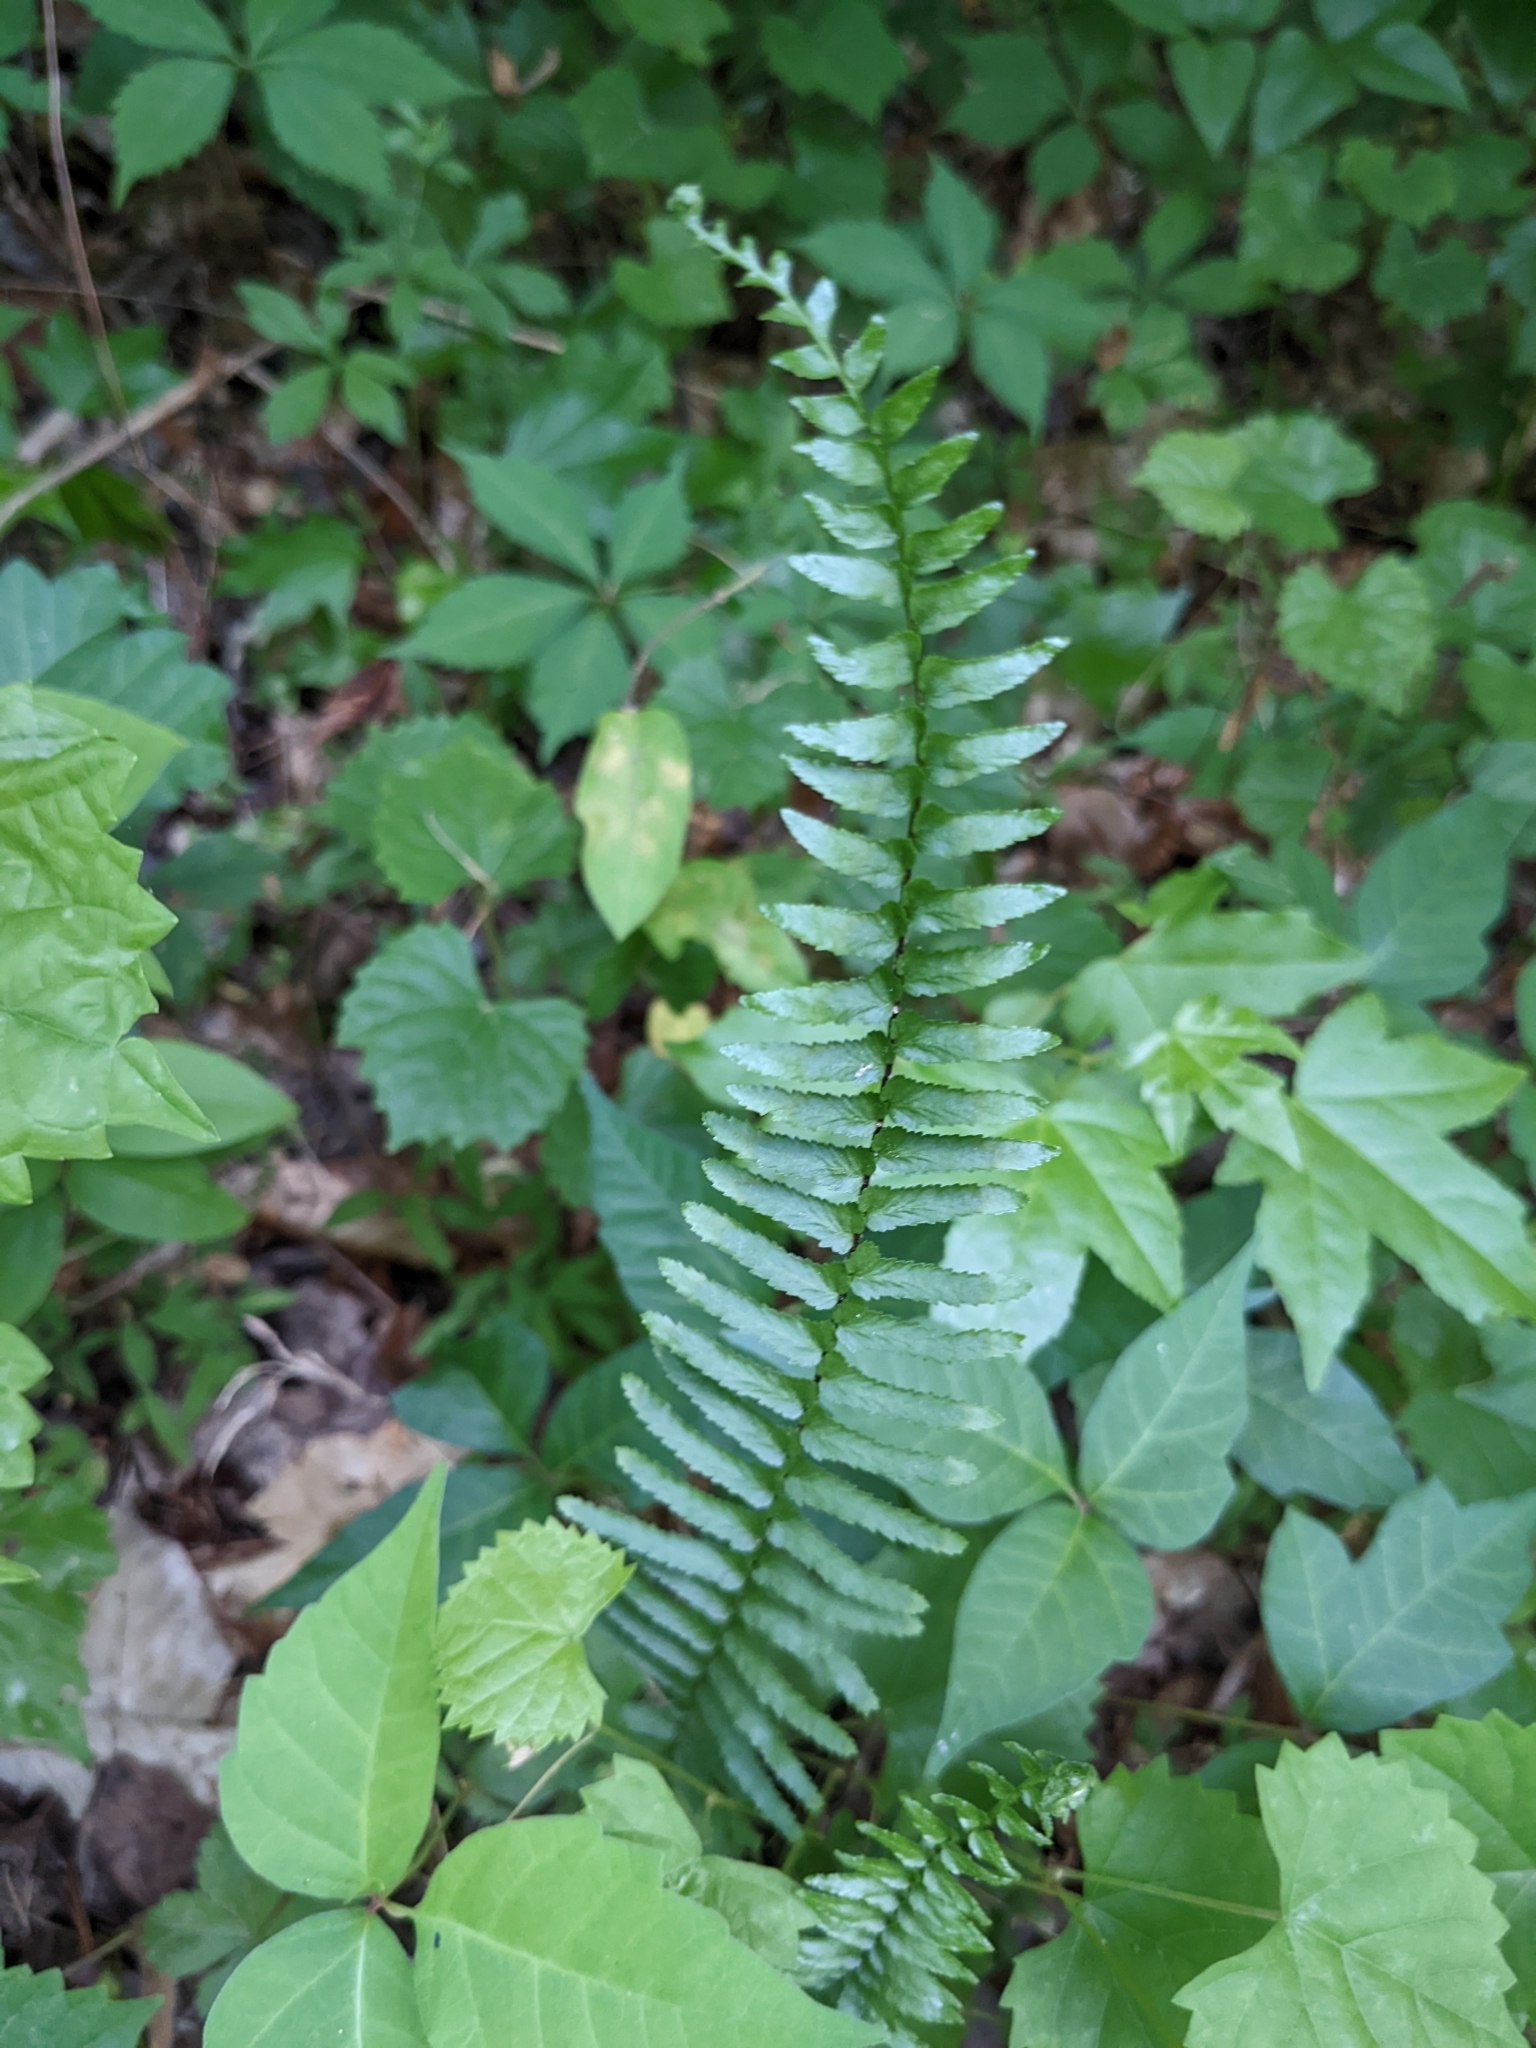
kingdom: Plantae
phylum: Tracheophyta
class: Polypodiopsida
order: Polypodiales
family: Aspleniaceae
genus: Asplenium
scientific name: Asplenium platyneuron
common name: Ebony spleenwort
